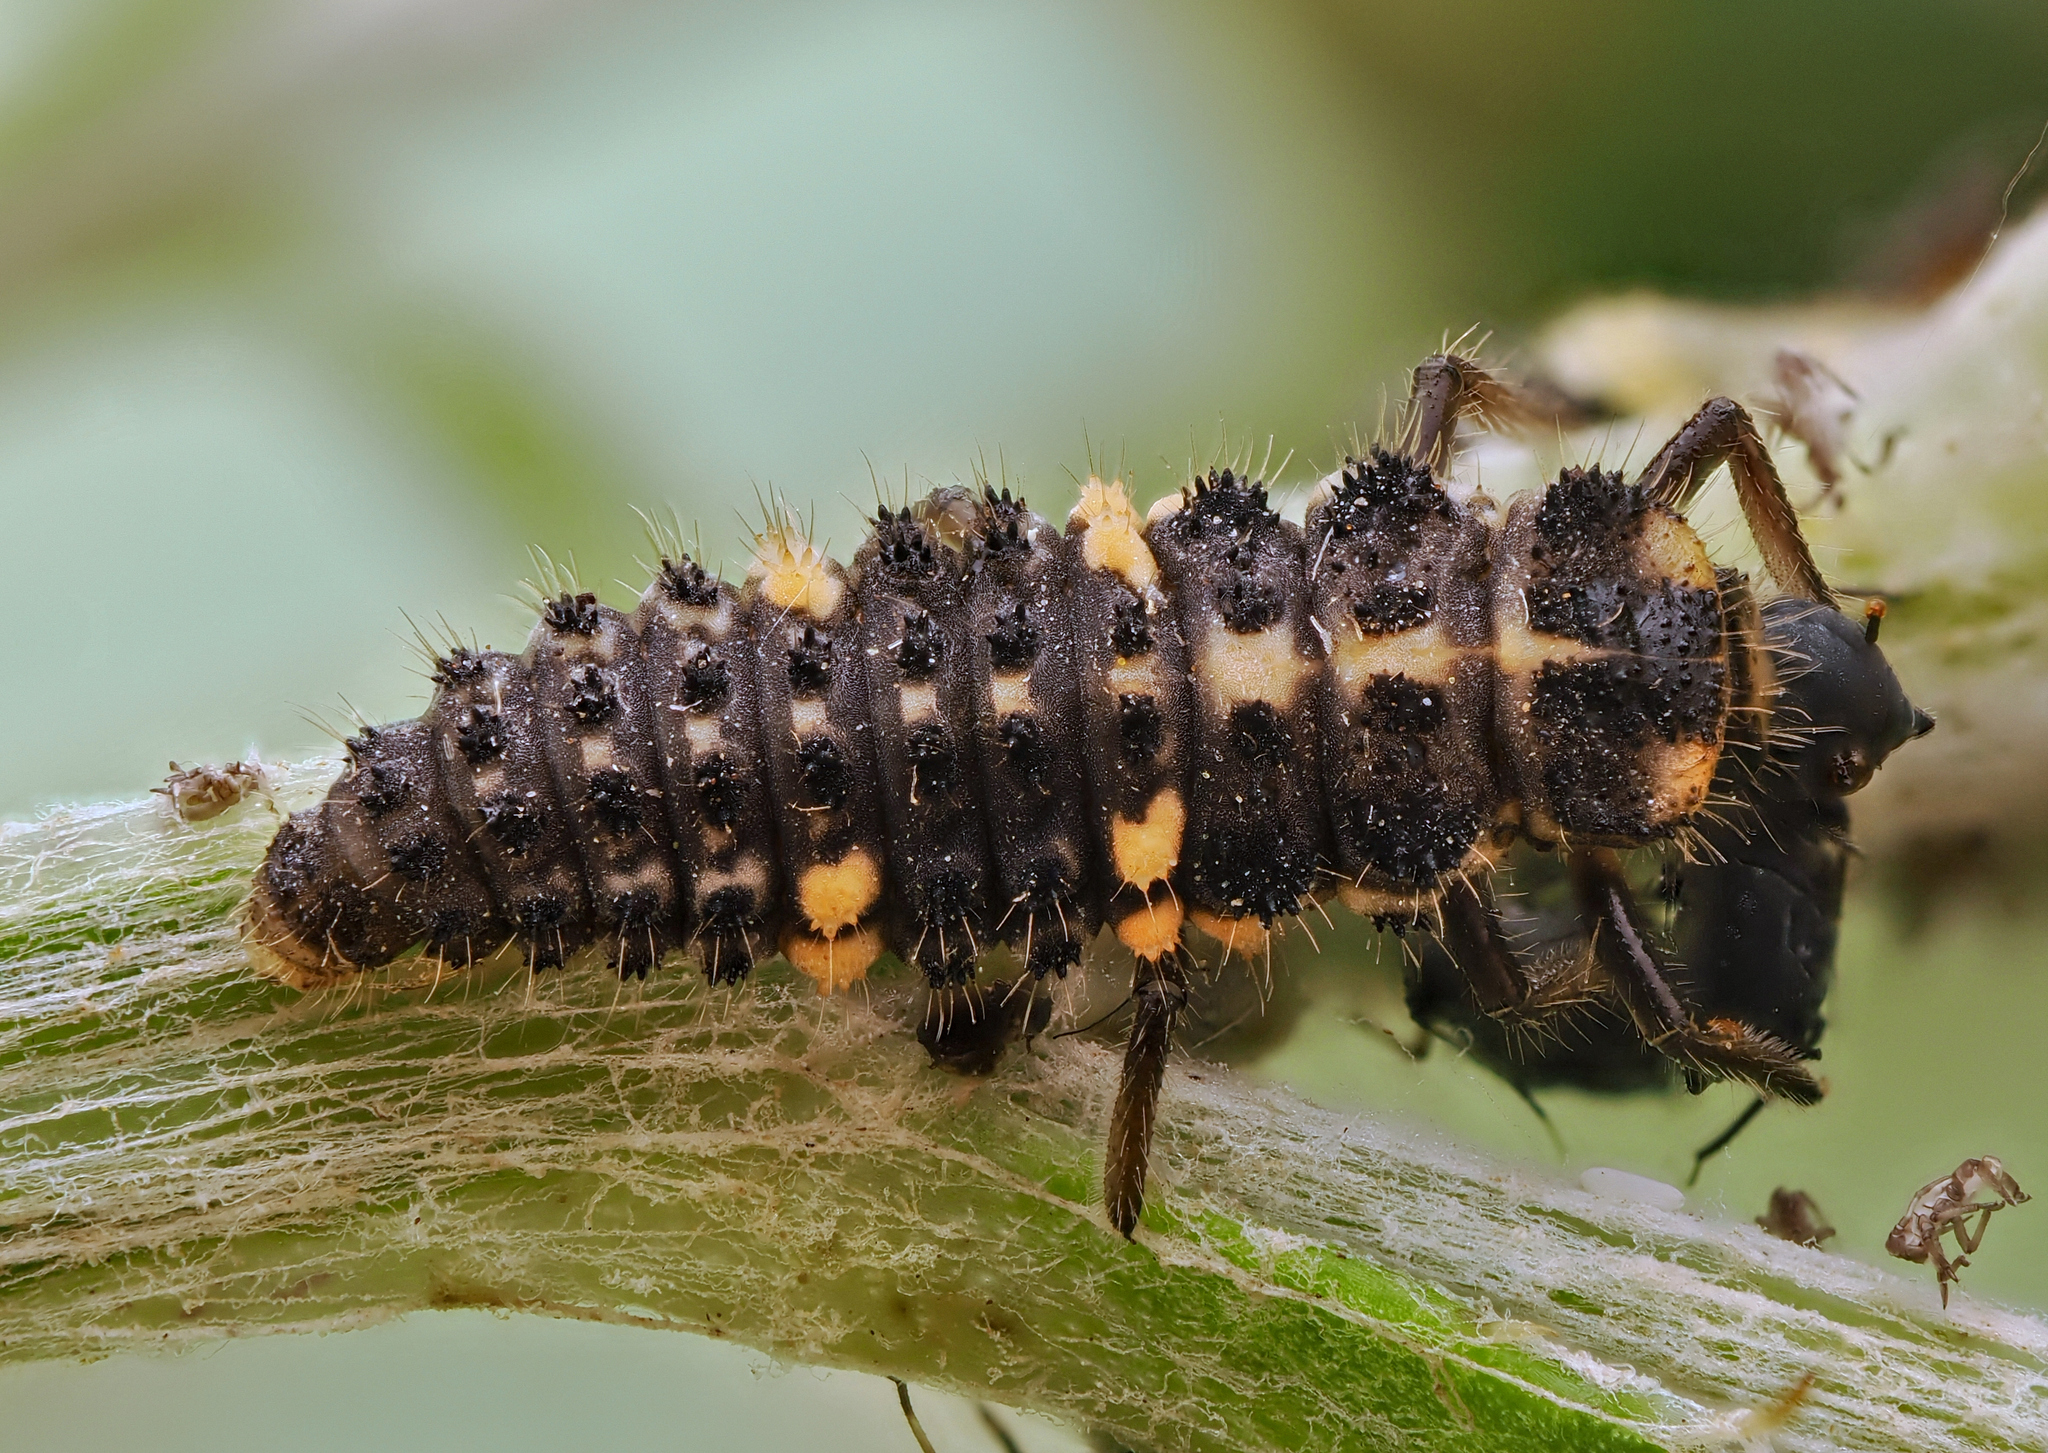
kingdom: Animalia
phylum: Arthropoda
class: Insecta
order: Coleoptera
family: Coccinellidae
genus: Ceratomegilla
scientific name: Ceratomegilla notata
